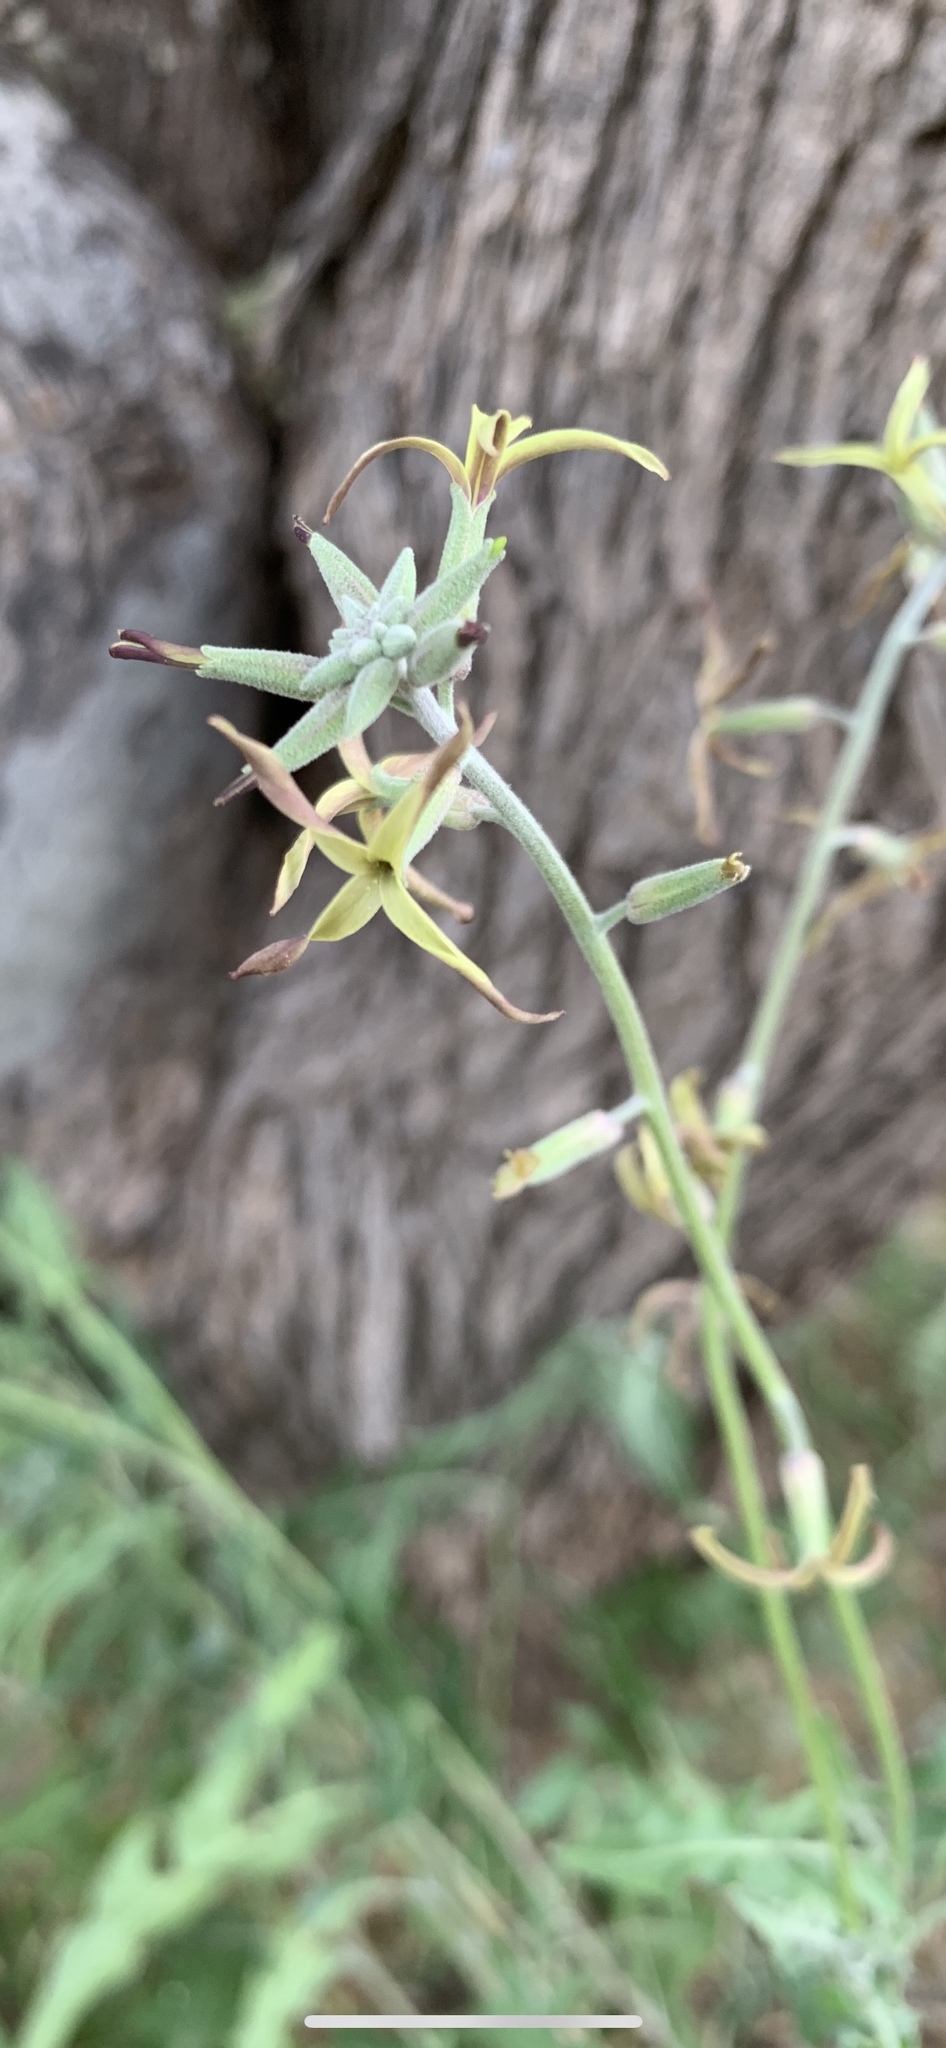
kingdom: Plantae
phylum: Tracheophyta
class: Magnoliopsida
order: Brassicales
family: Brassicaceae
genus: Lyrocarpa
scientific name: Lyrocarpa coulteri
